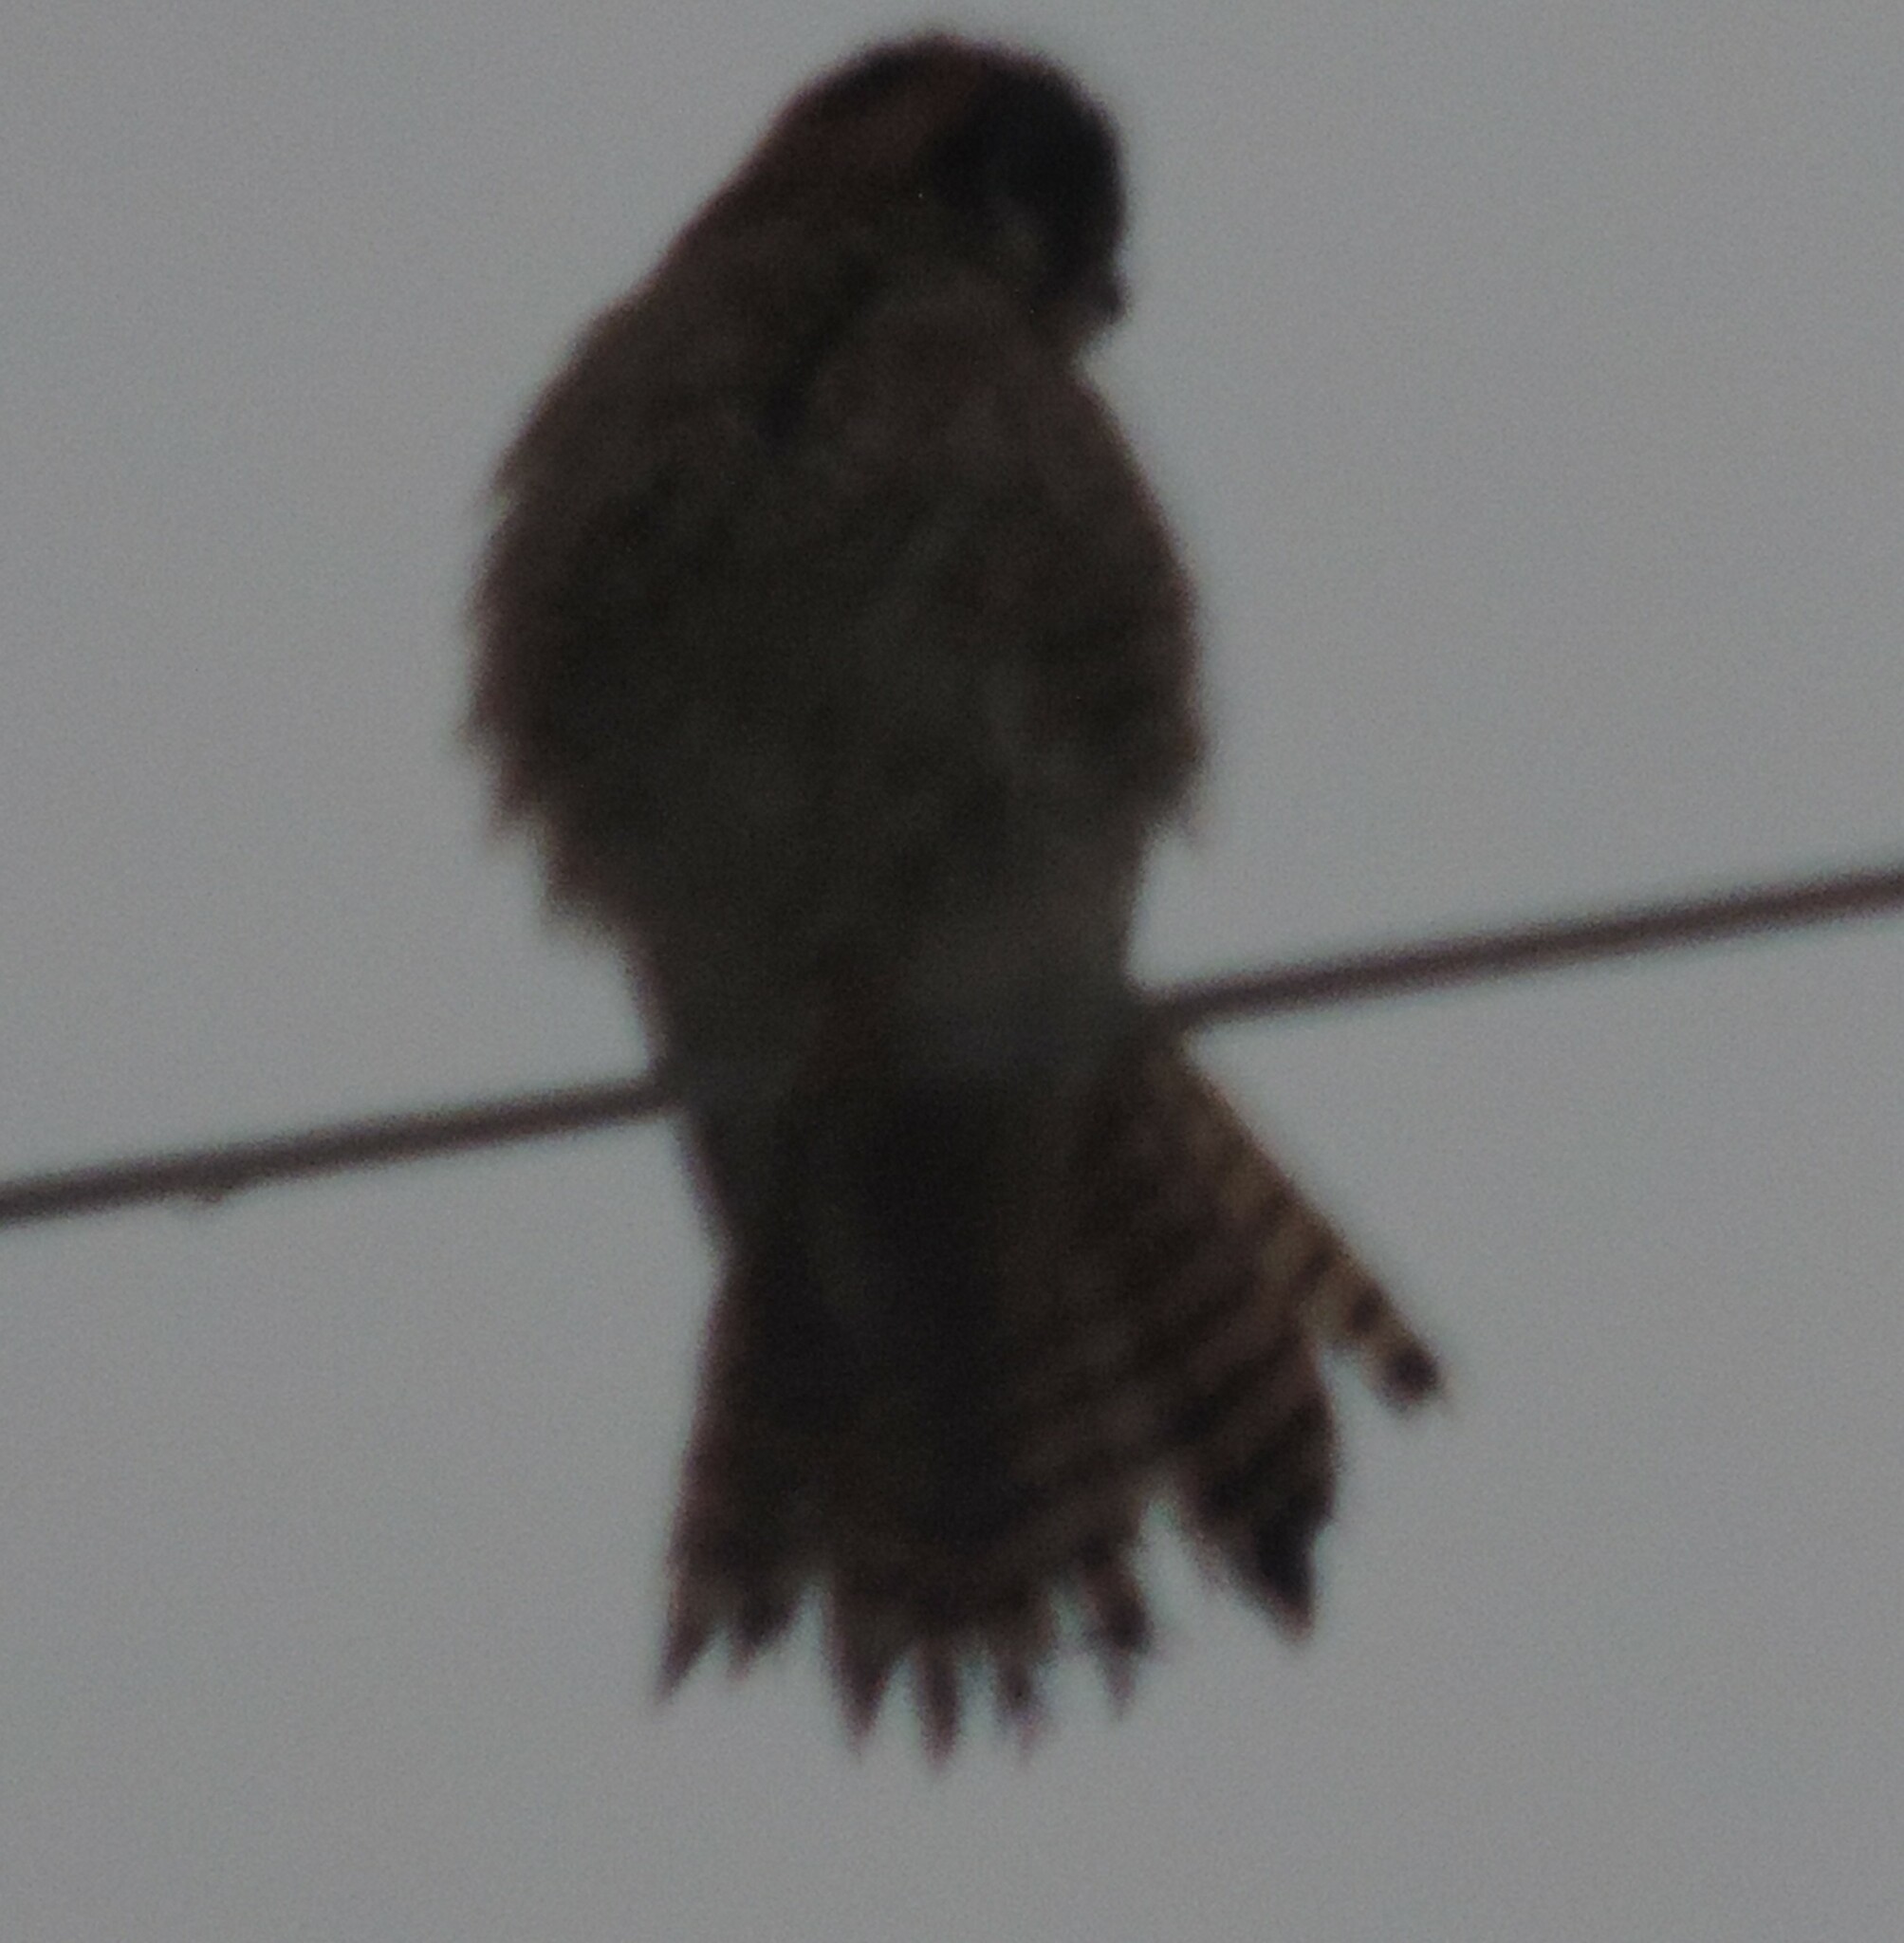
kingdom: Animalia
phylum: Chordata
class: Aves
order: Falconiformes
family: Falconidae
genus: Falco
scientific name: Falco sparverius
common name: American kestrel
